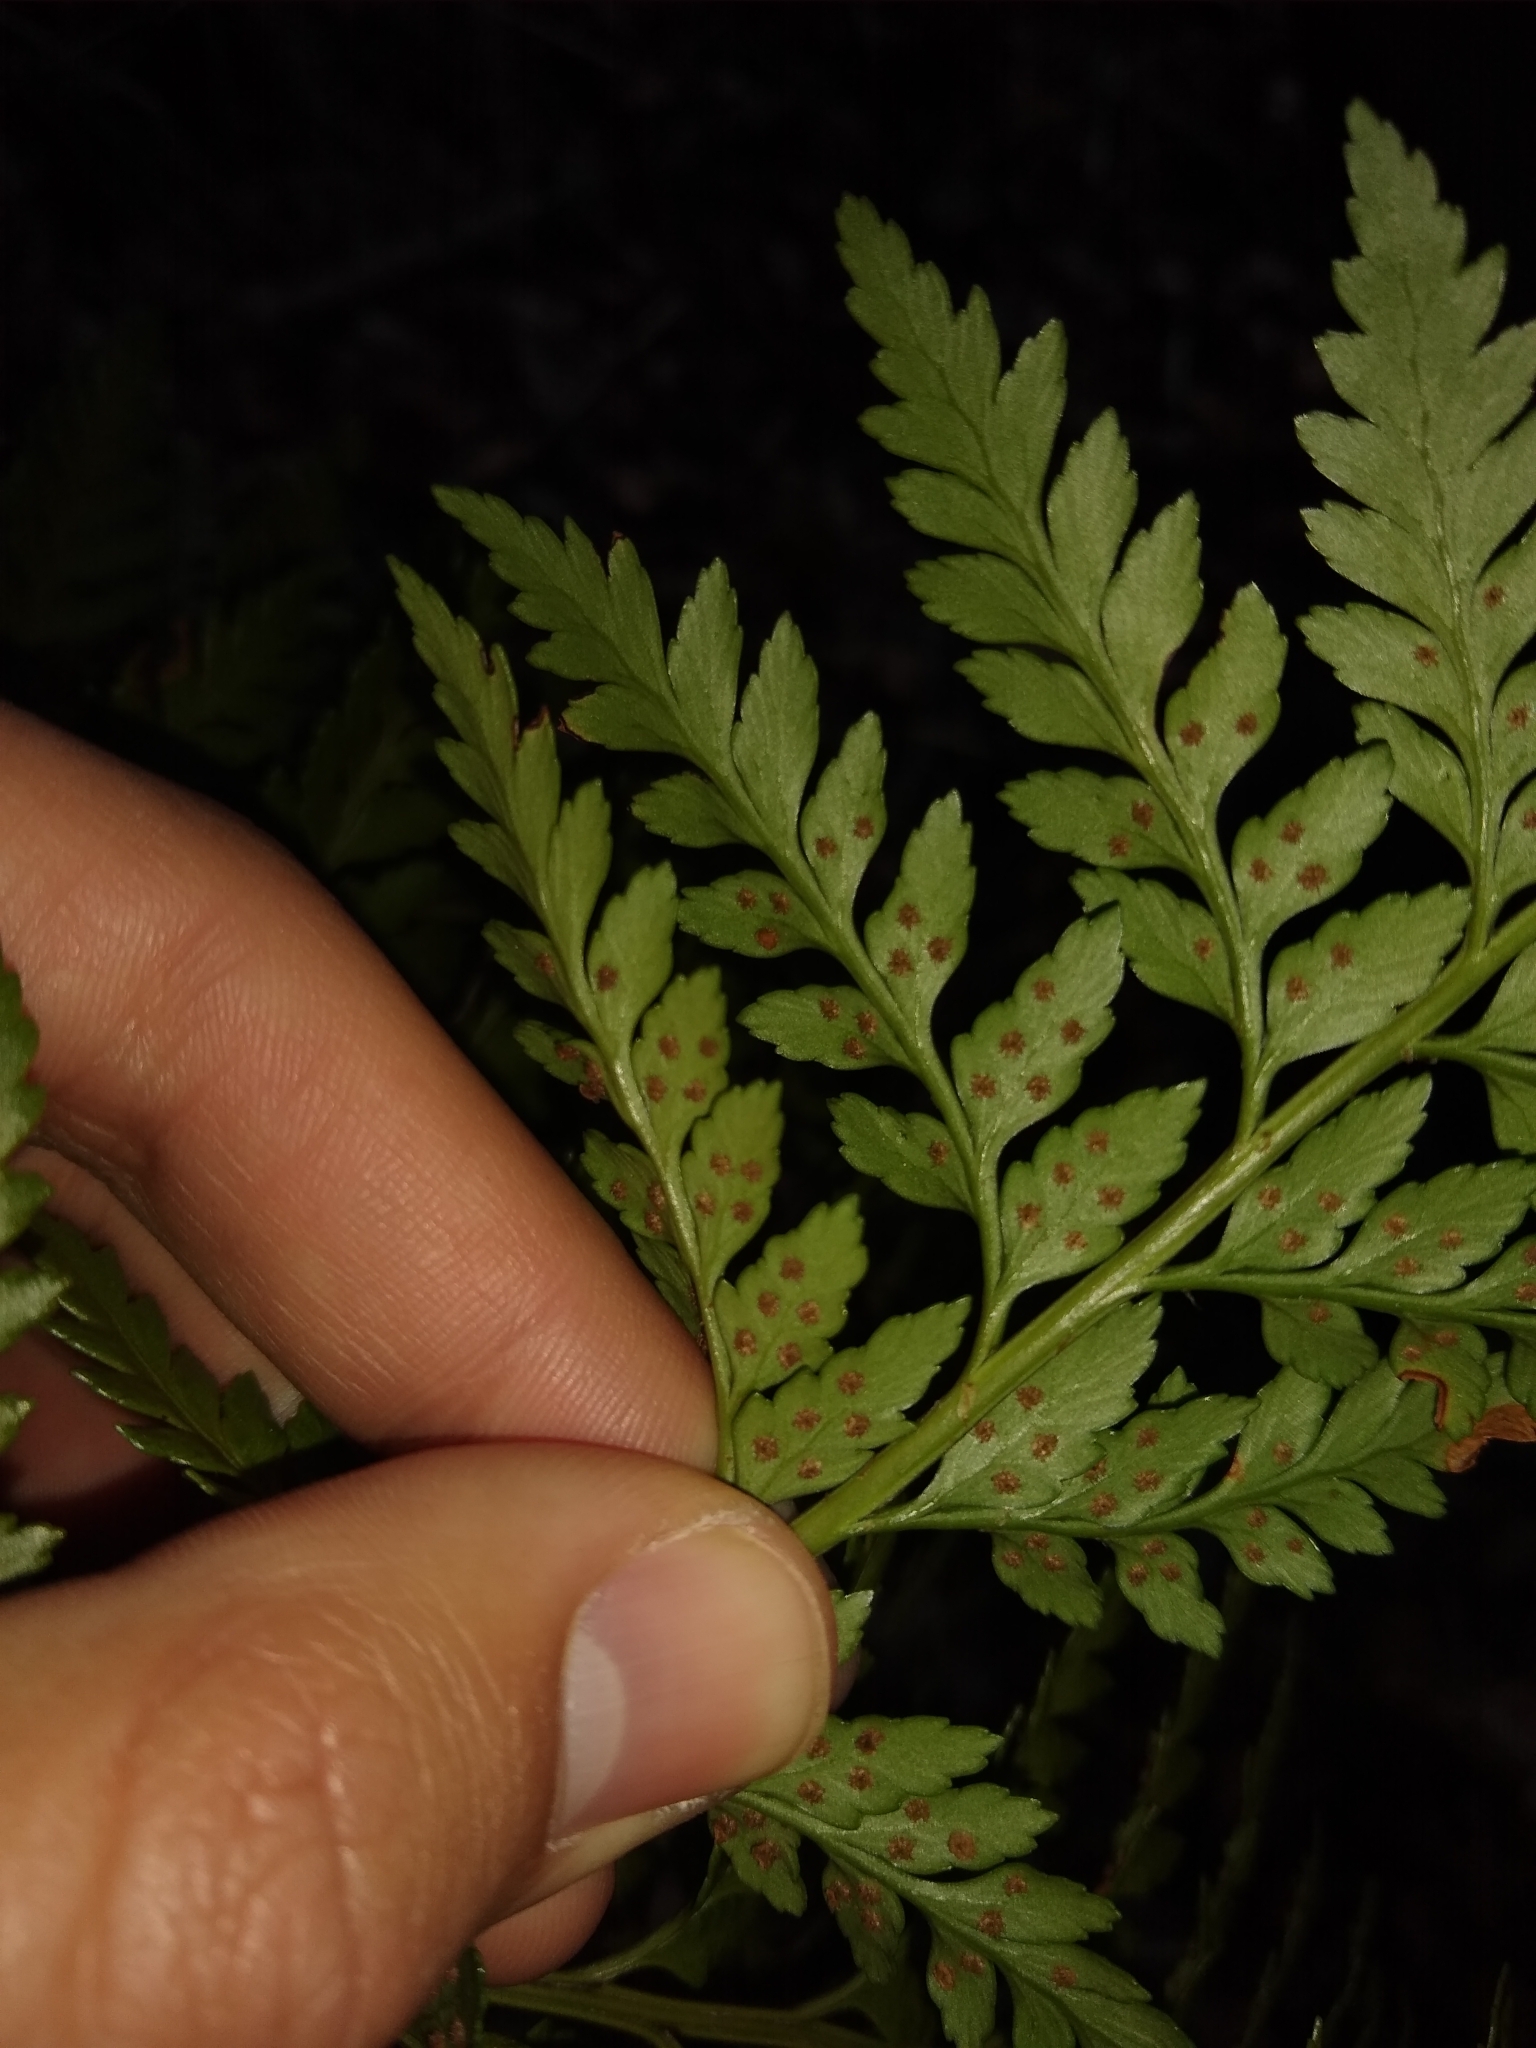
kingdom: Plantae
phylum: Tracheophyta
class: Polypodiopsida
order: Polypodiales
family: Dryopteridaceae
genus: Rumohra
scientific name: Rumohra adiantiformis
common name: Leather fern
